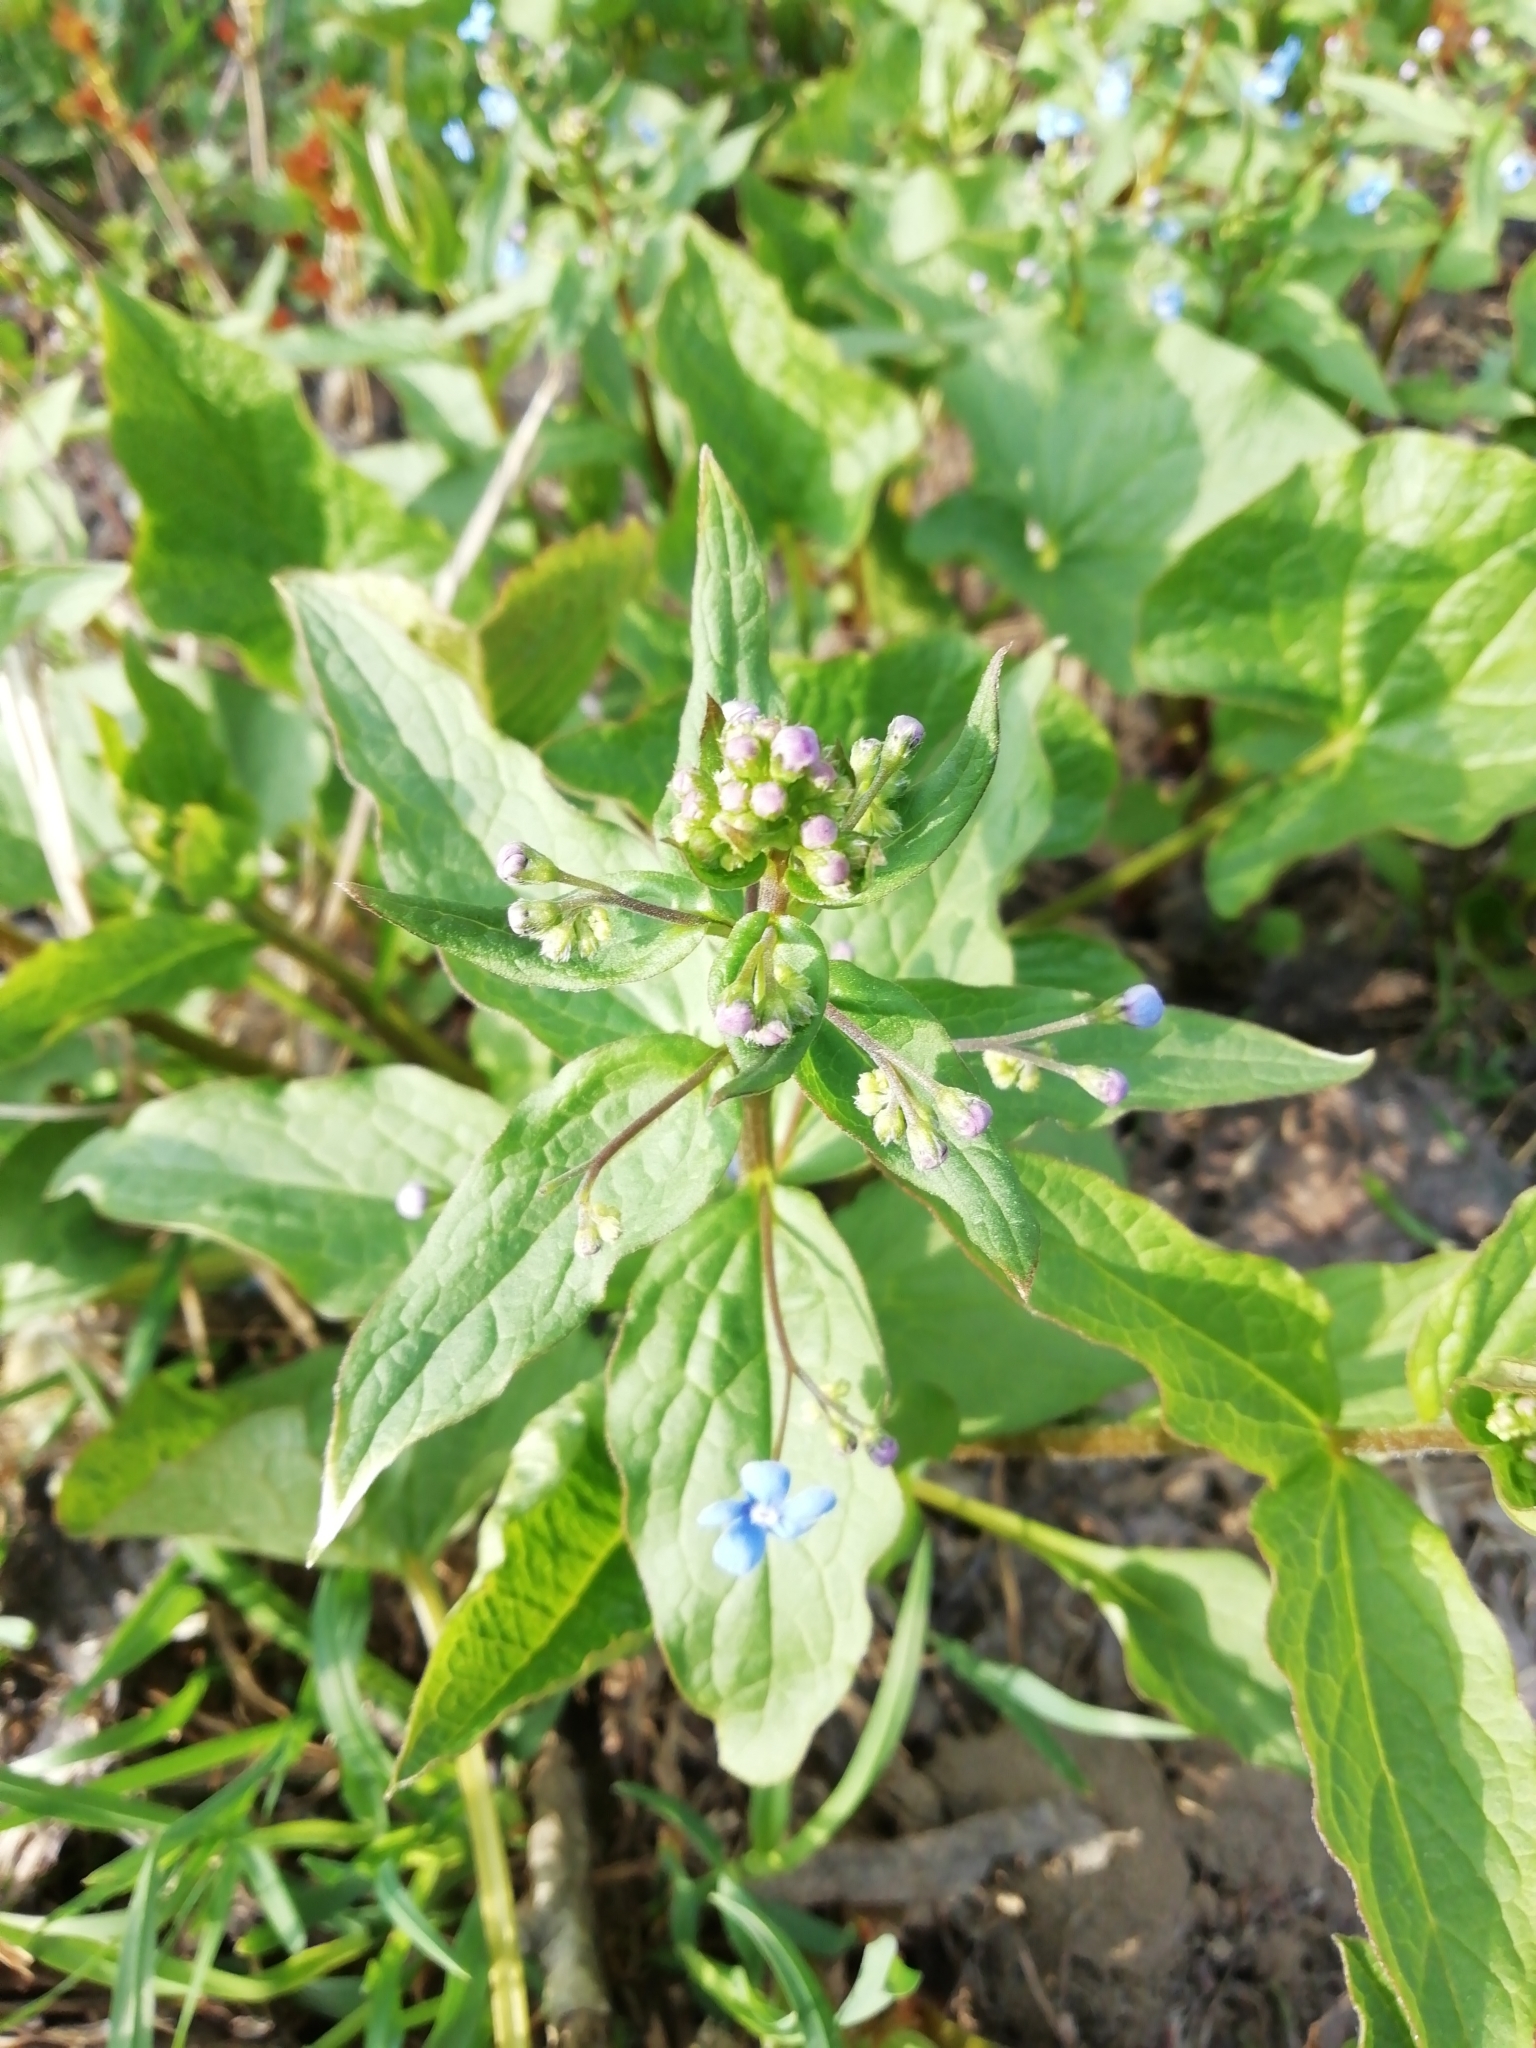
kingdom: Plantae
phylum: Tracheophyta
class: Magnoliopsida
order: Boraginales
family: Boraginaceae
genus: Brunnera
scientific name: Brunnera sibirica
